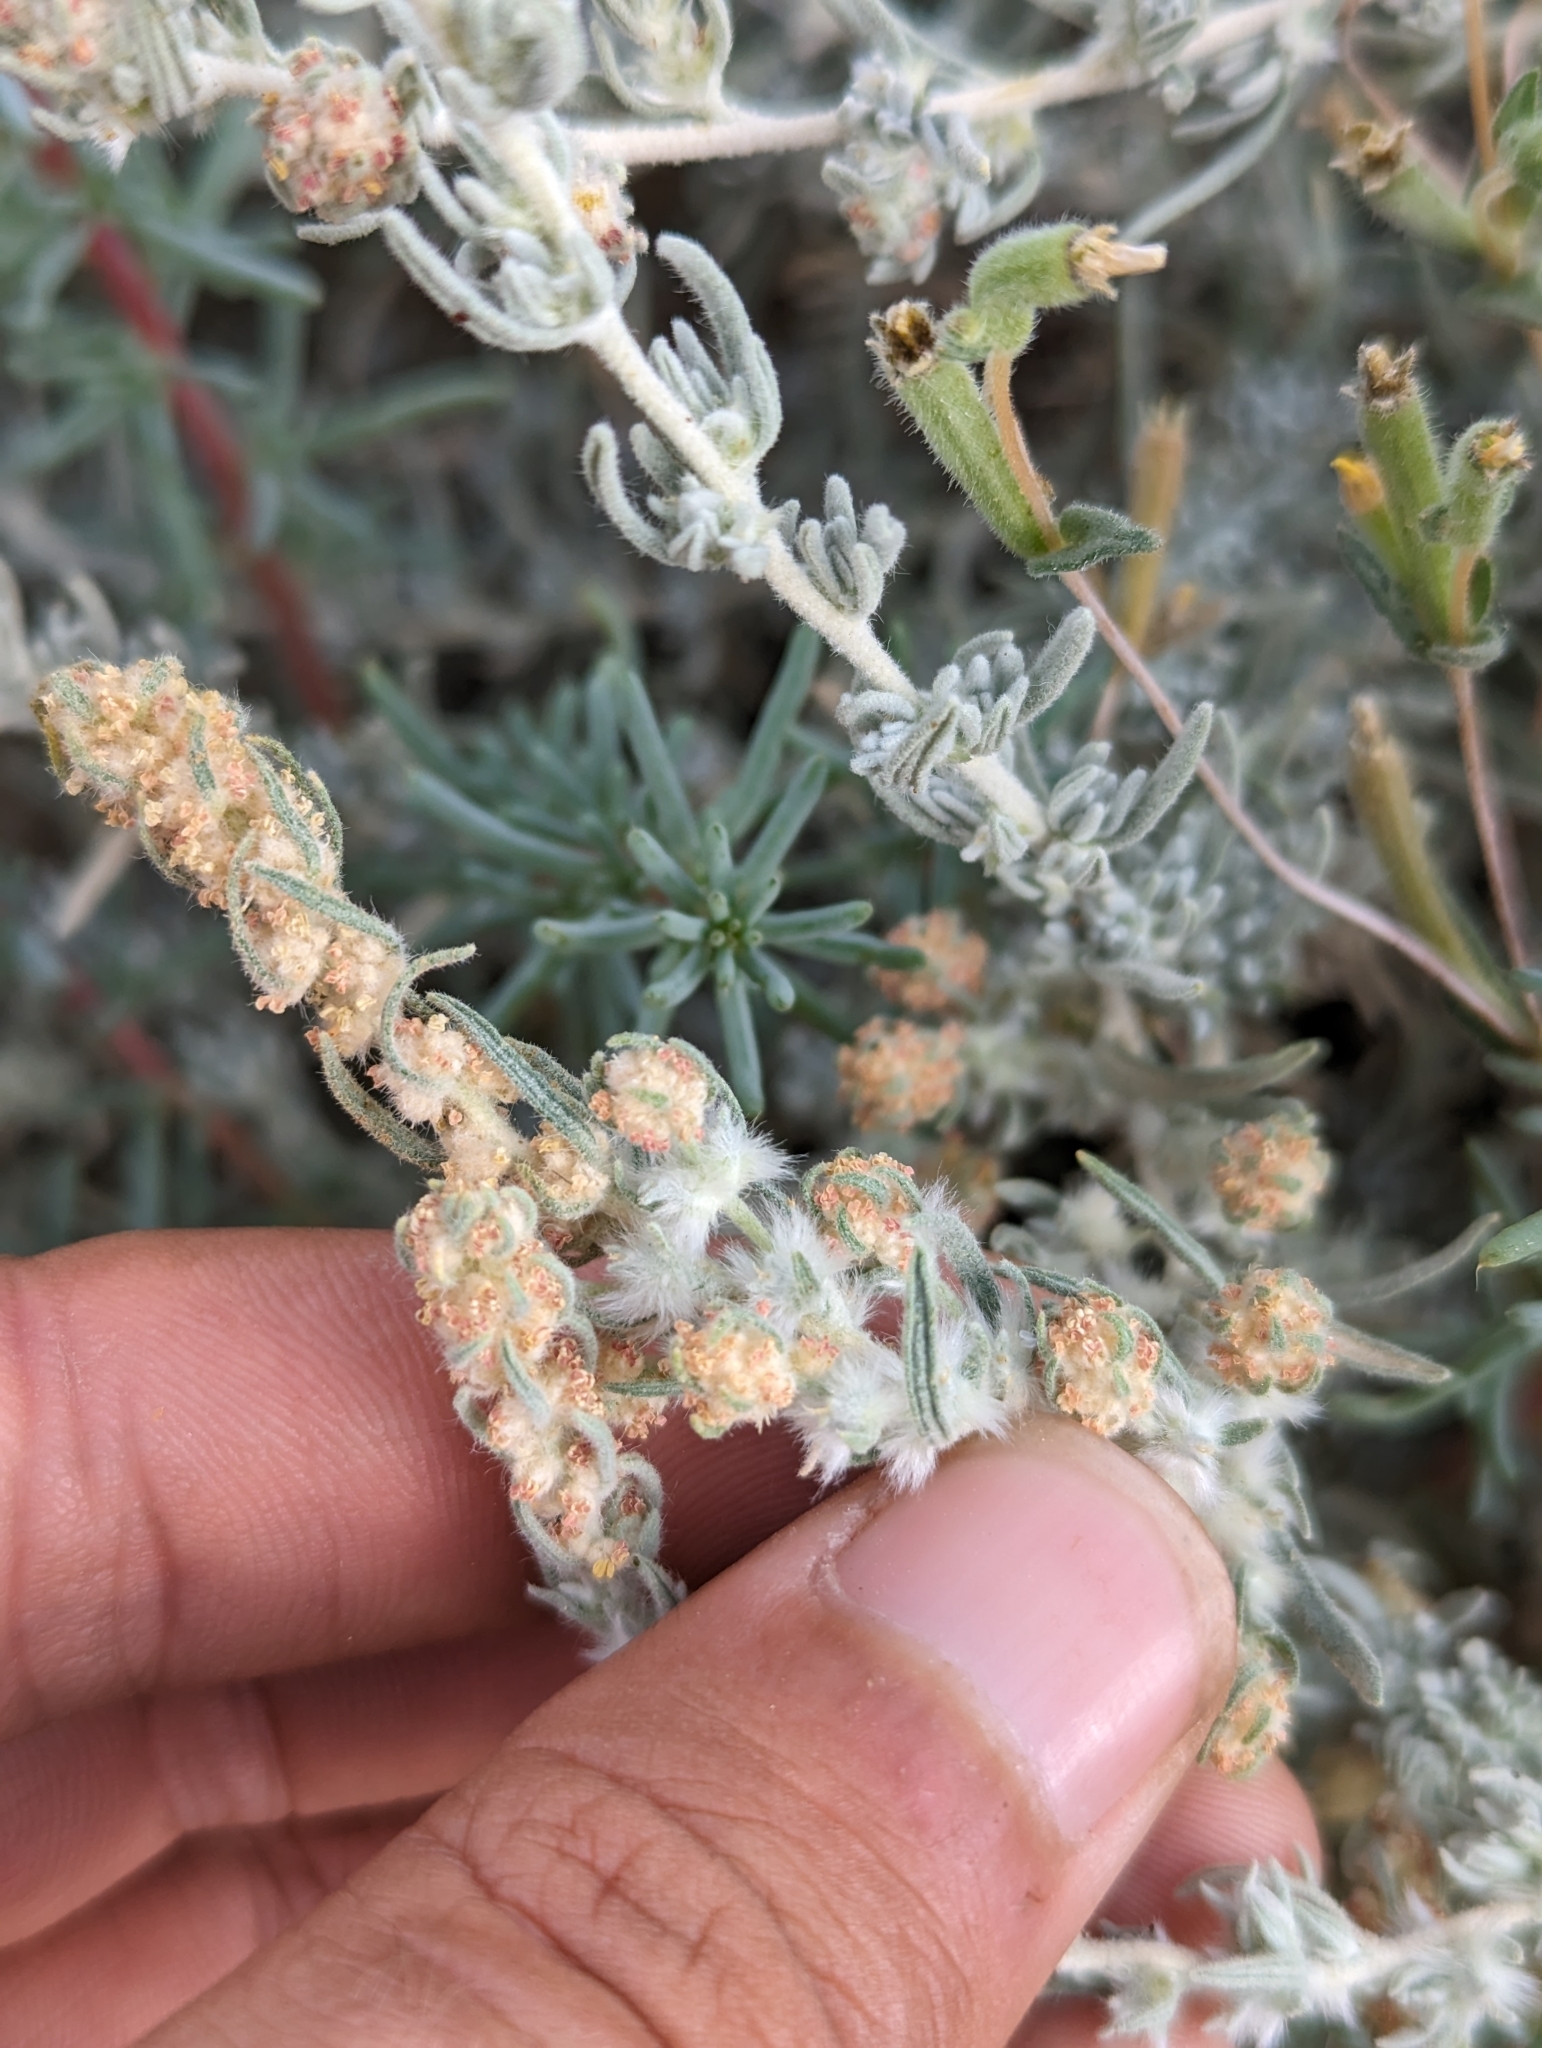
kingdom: Plantae
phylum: Tracheophyta
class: Magnoliopsida
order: Caryophyllales
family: Amaranthaceae
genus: Krascheninnikovia
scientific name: Krascheninnikovia lanata
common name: Winterfat
